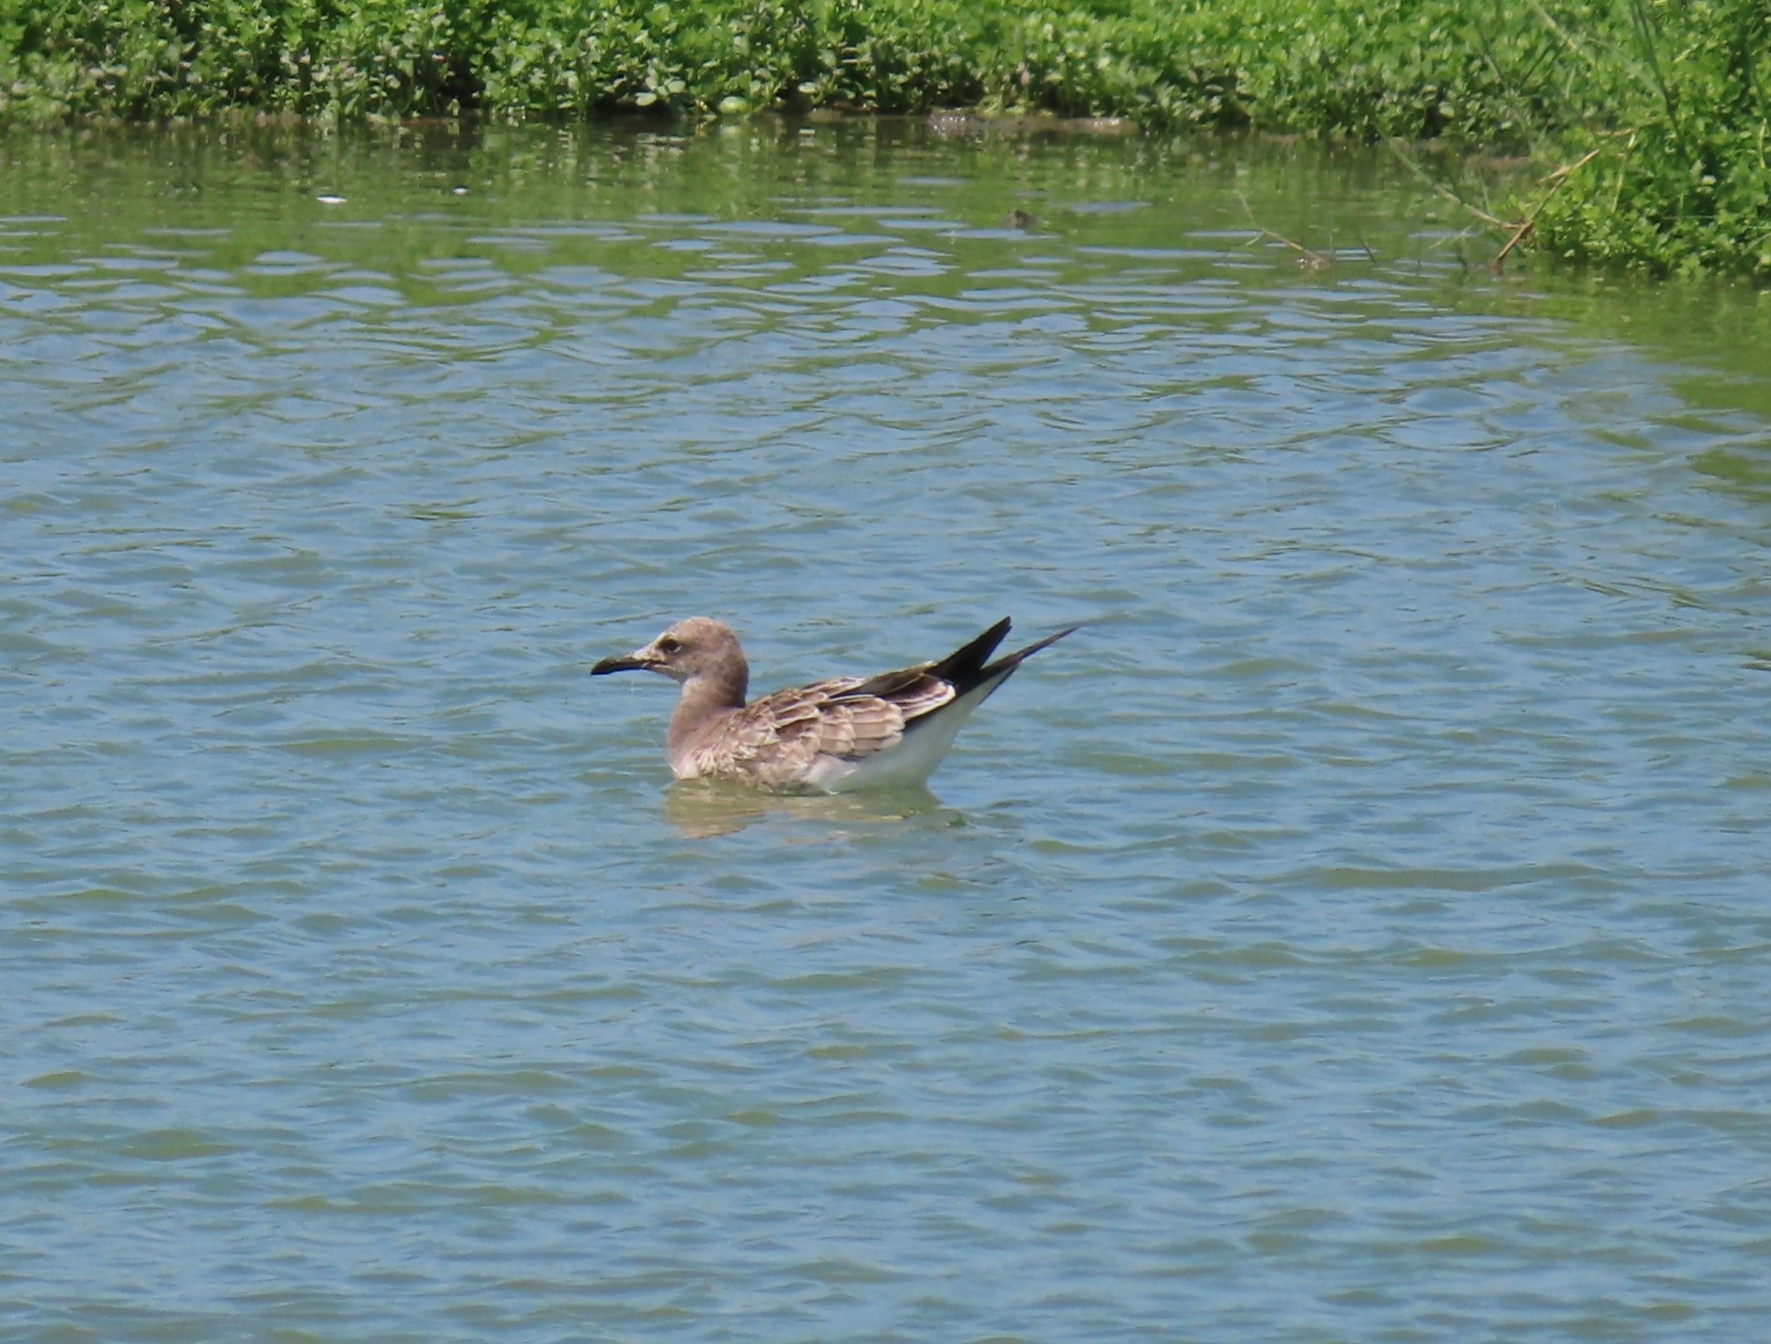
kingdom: Animalia
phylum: Chordata
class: Aves
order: Charadriiformes
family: Laridae
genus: Leucophaeus
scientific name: Leucophaeus atricilla
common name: Laughing gull
